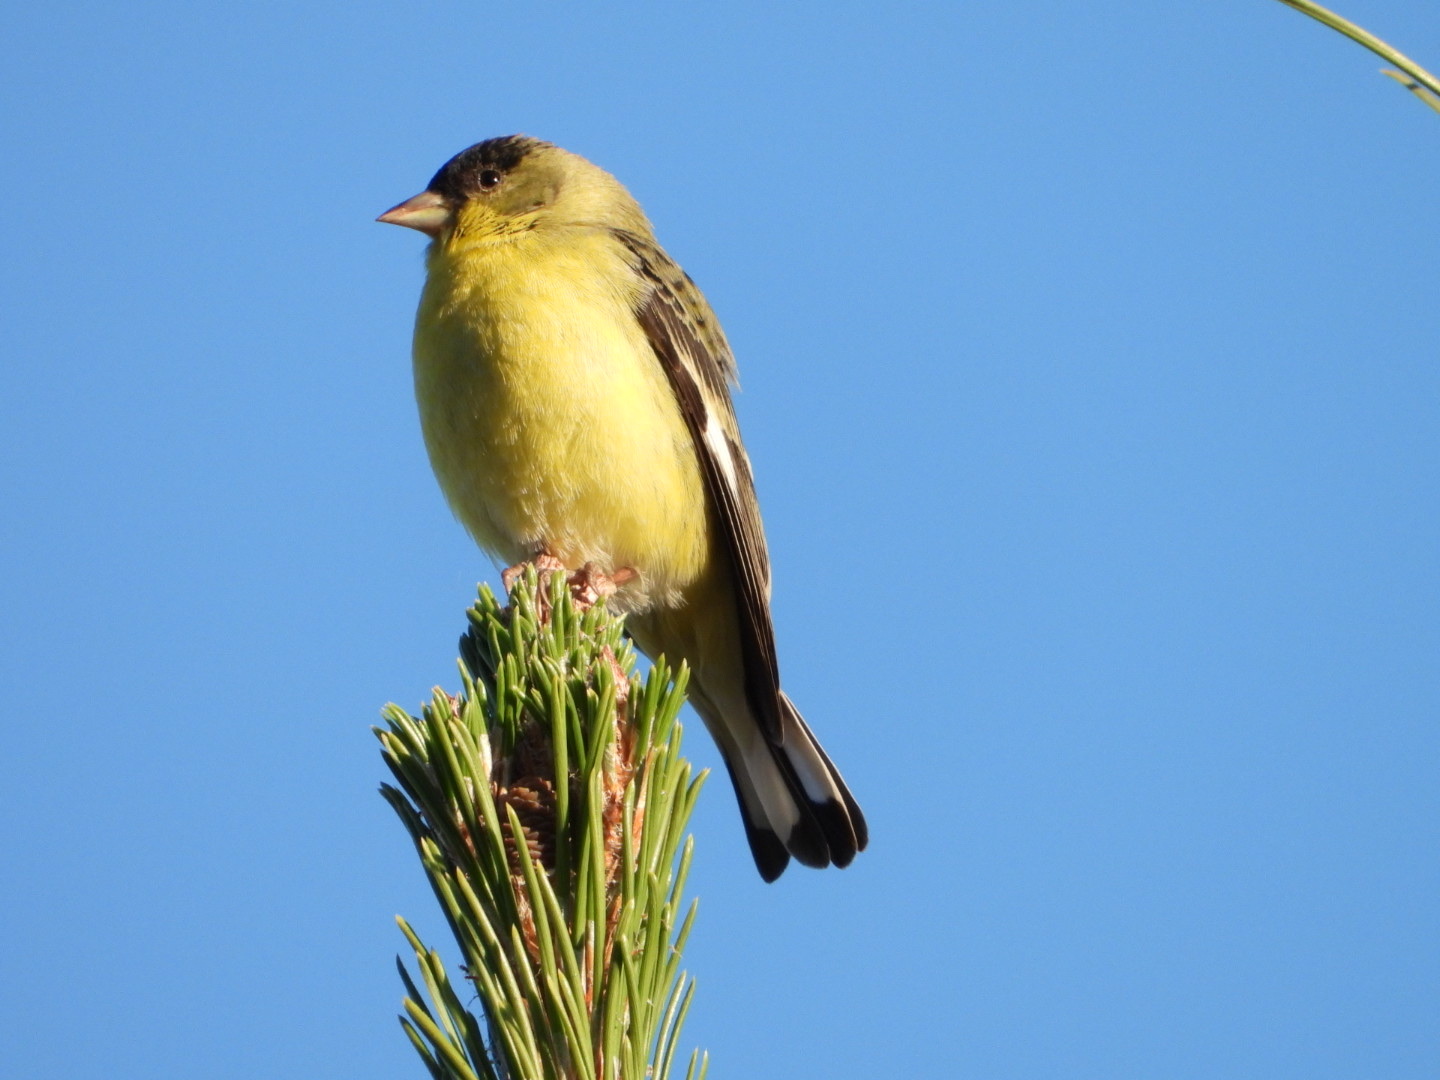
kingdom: Animalia
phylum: Chordata
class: Aves
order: Passeriformes
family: Fringillidae
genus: Spinus
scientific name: Spinus psaltria
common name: Lesser goldfinch
